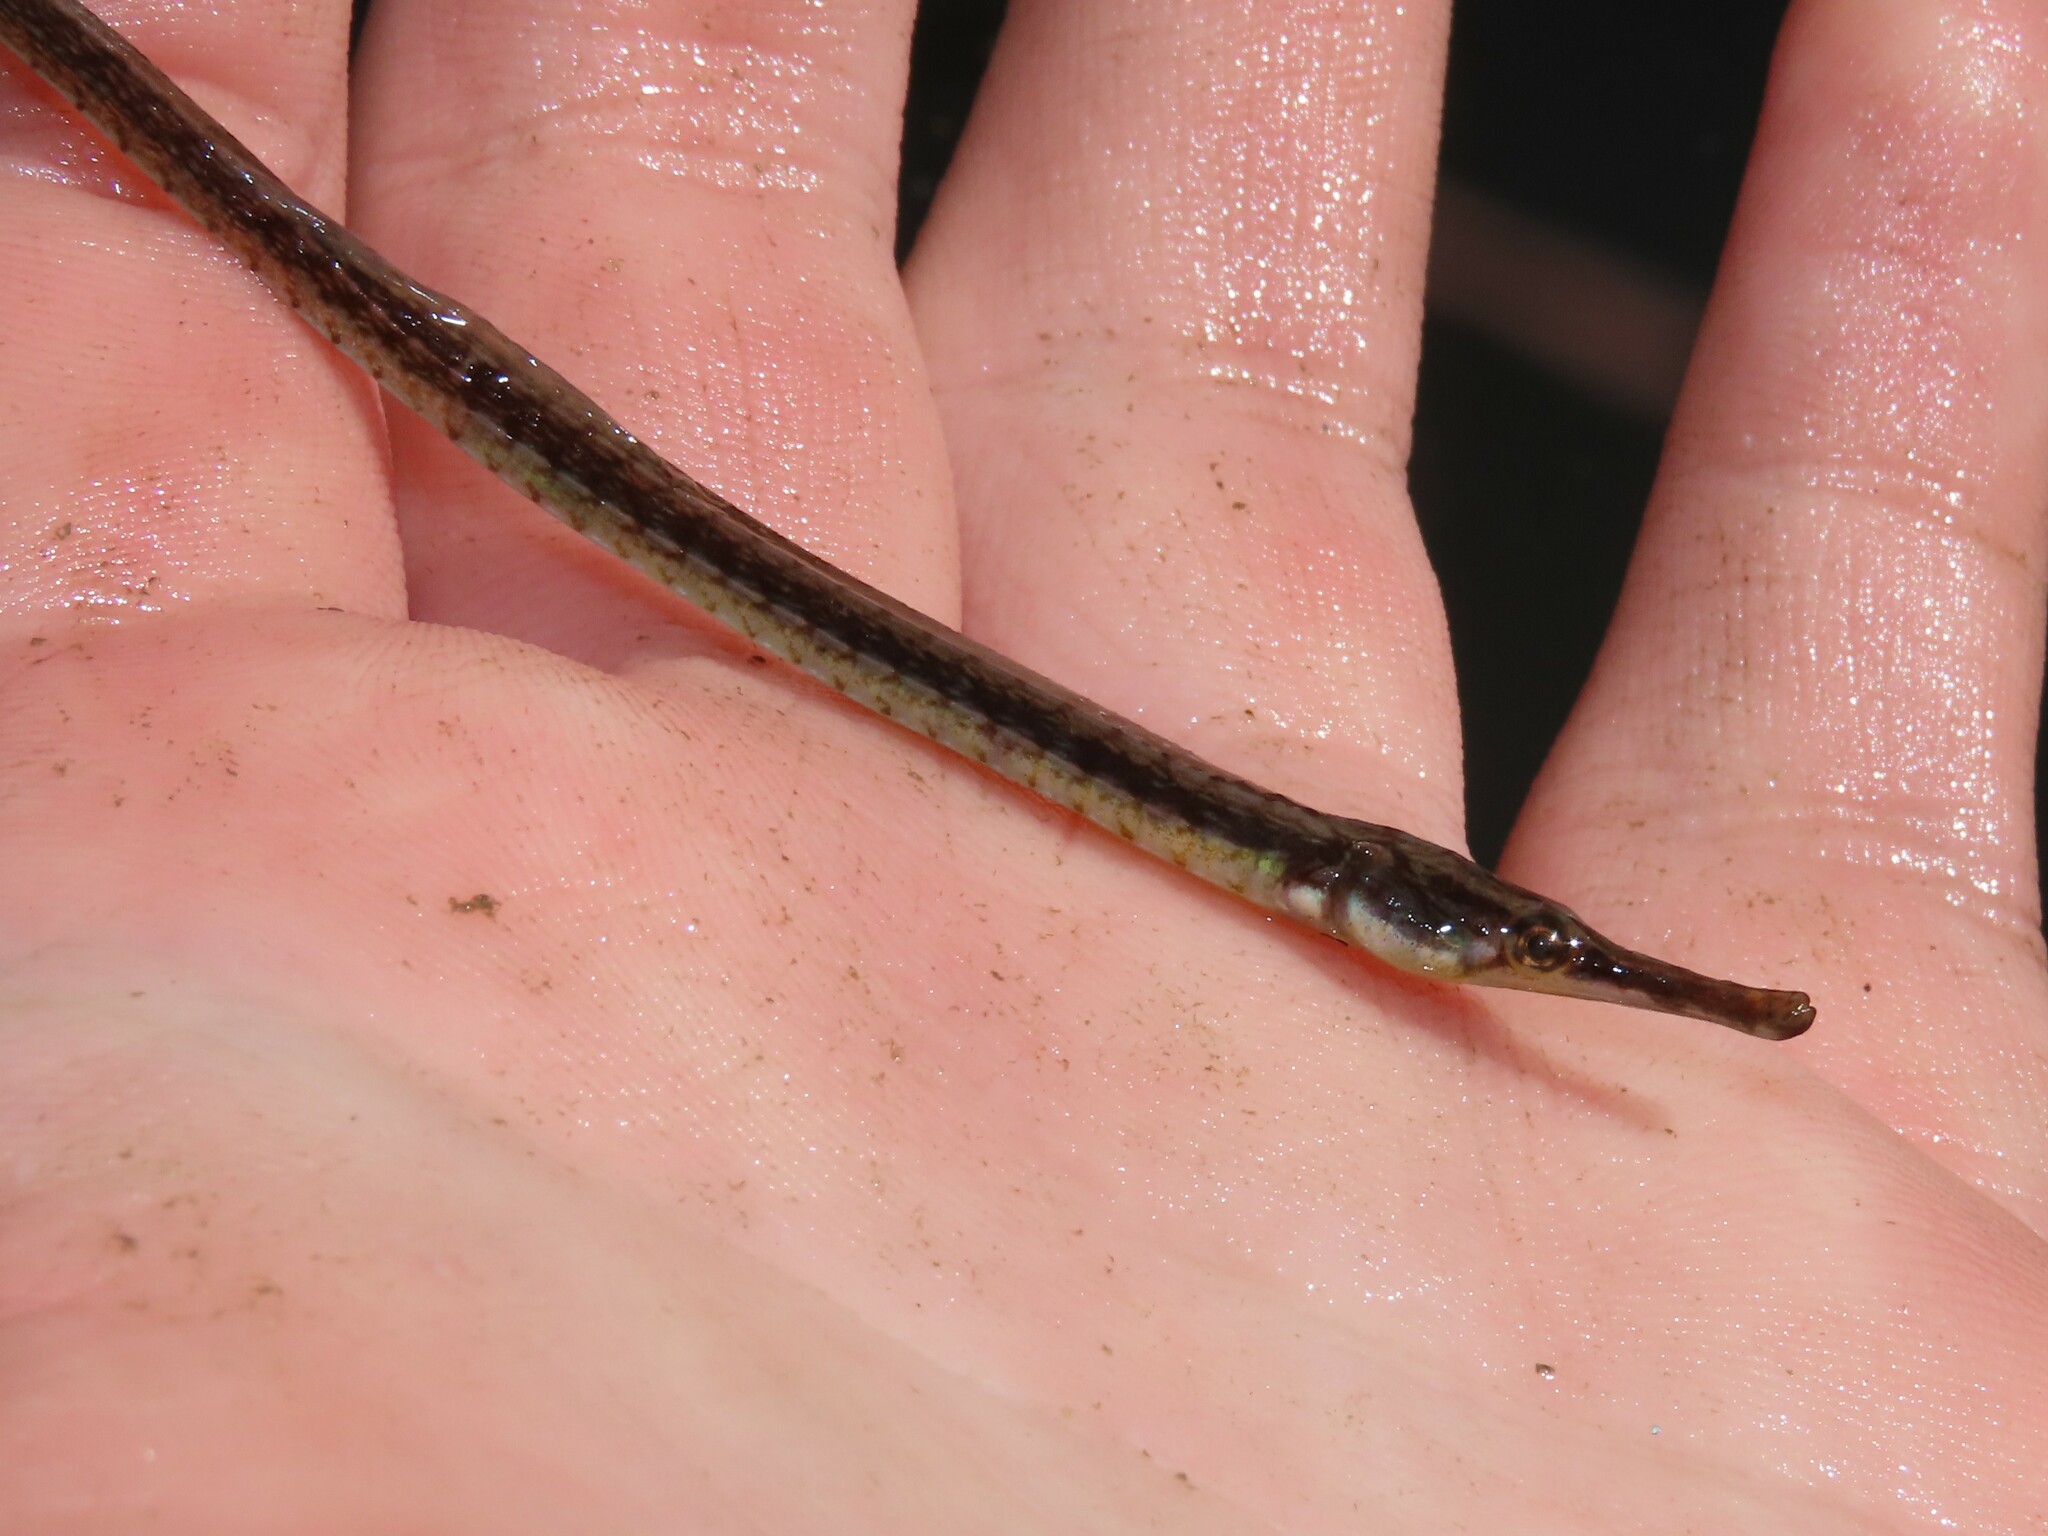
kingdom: Animalia
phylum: Chordata
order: Syngnathiformes
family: Syngnathidae
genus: Syngnathus
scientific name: Syngnathus fuscus
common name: Northern pipefish
